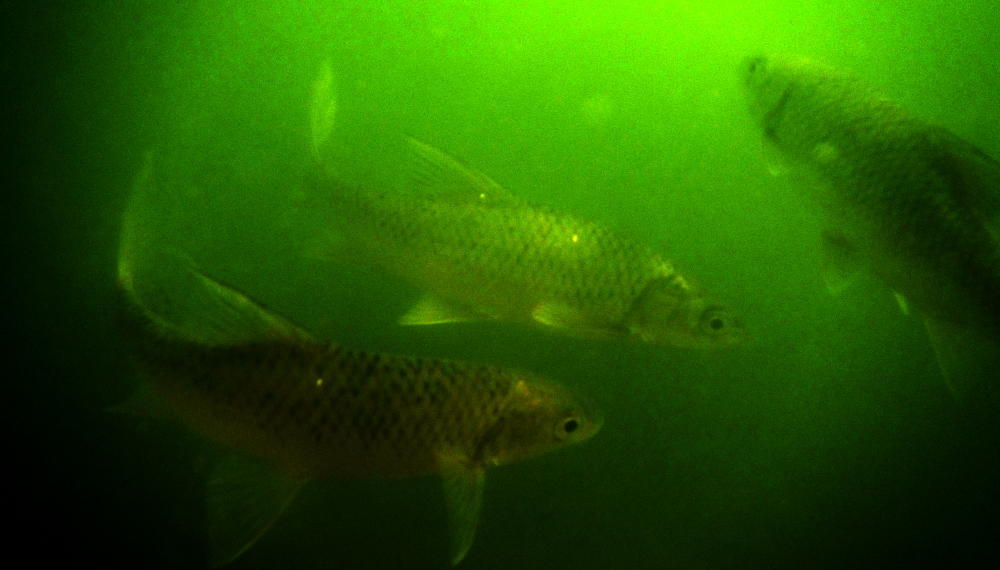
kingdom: Animalia
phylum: Chordata
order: Cypriniformes
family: Cyprinidae
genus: Labeobarbus
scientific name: Labeobarbus aeneus
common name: Smallmouth yellowfish
